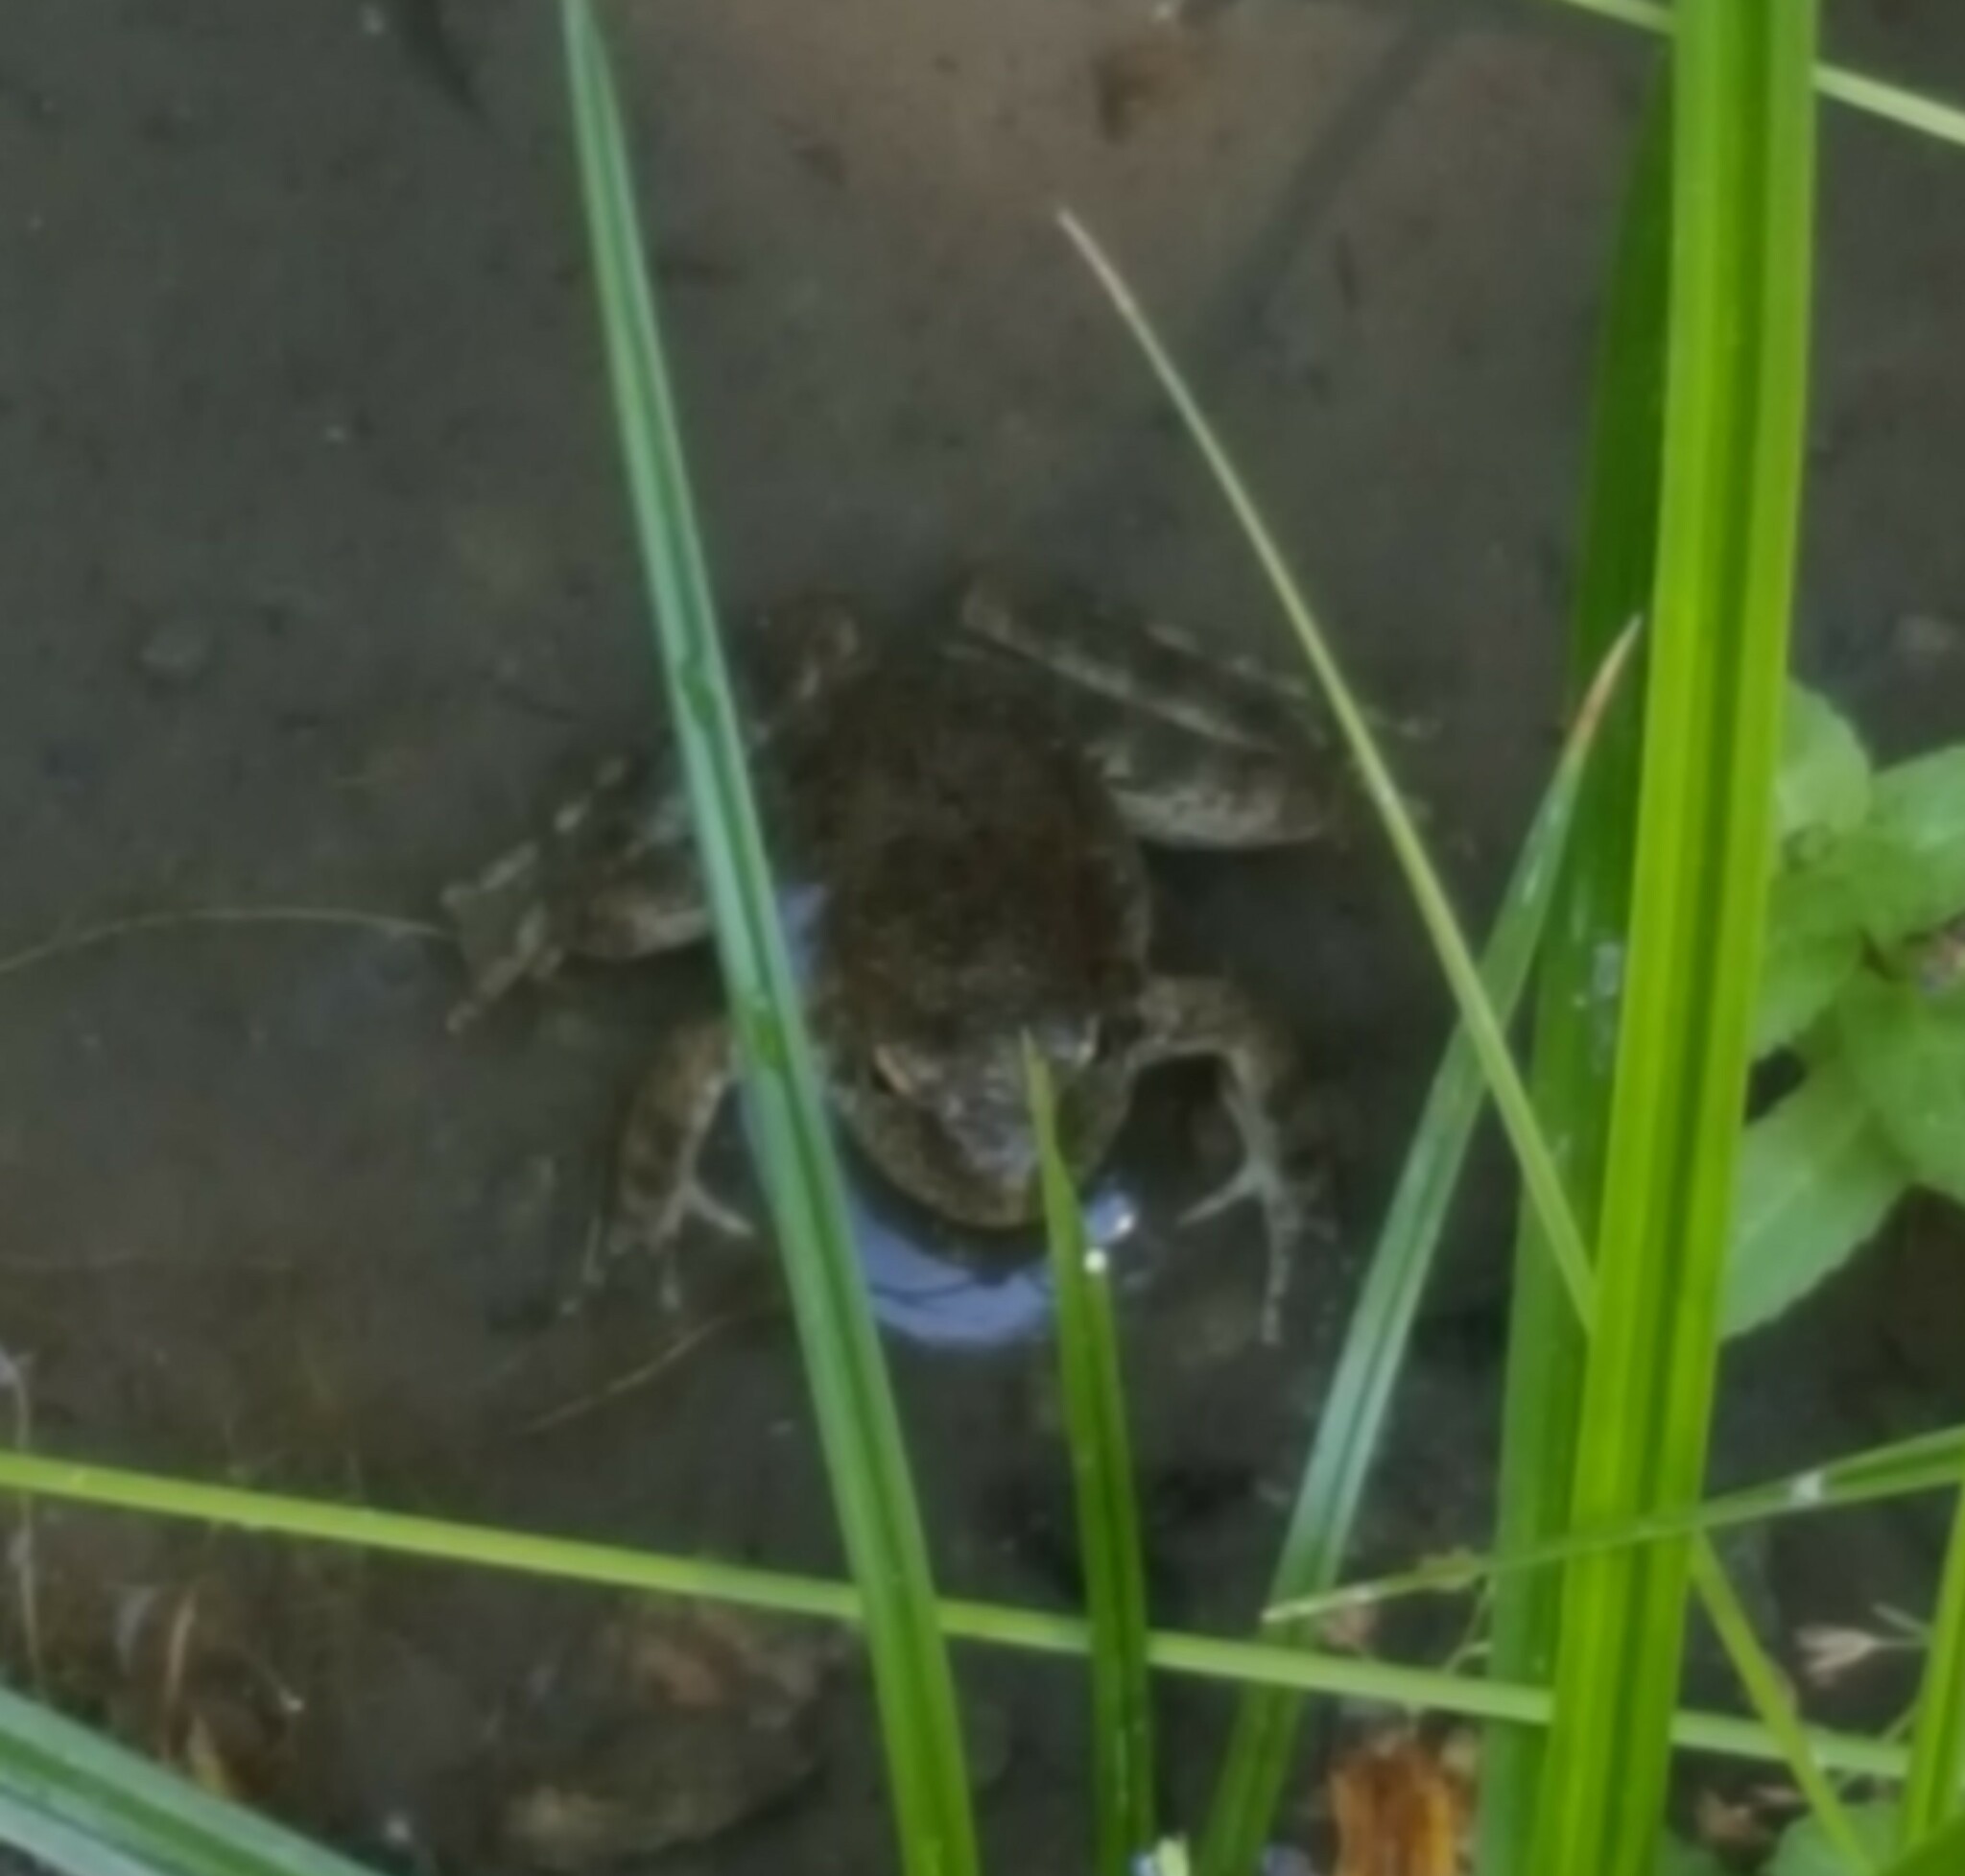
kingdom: Animalia
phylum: Chordata
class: Amphibia
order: Anura
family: Ranidae
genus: Rana
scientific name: Rana boylii
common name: Foothill yellow-legged frog
